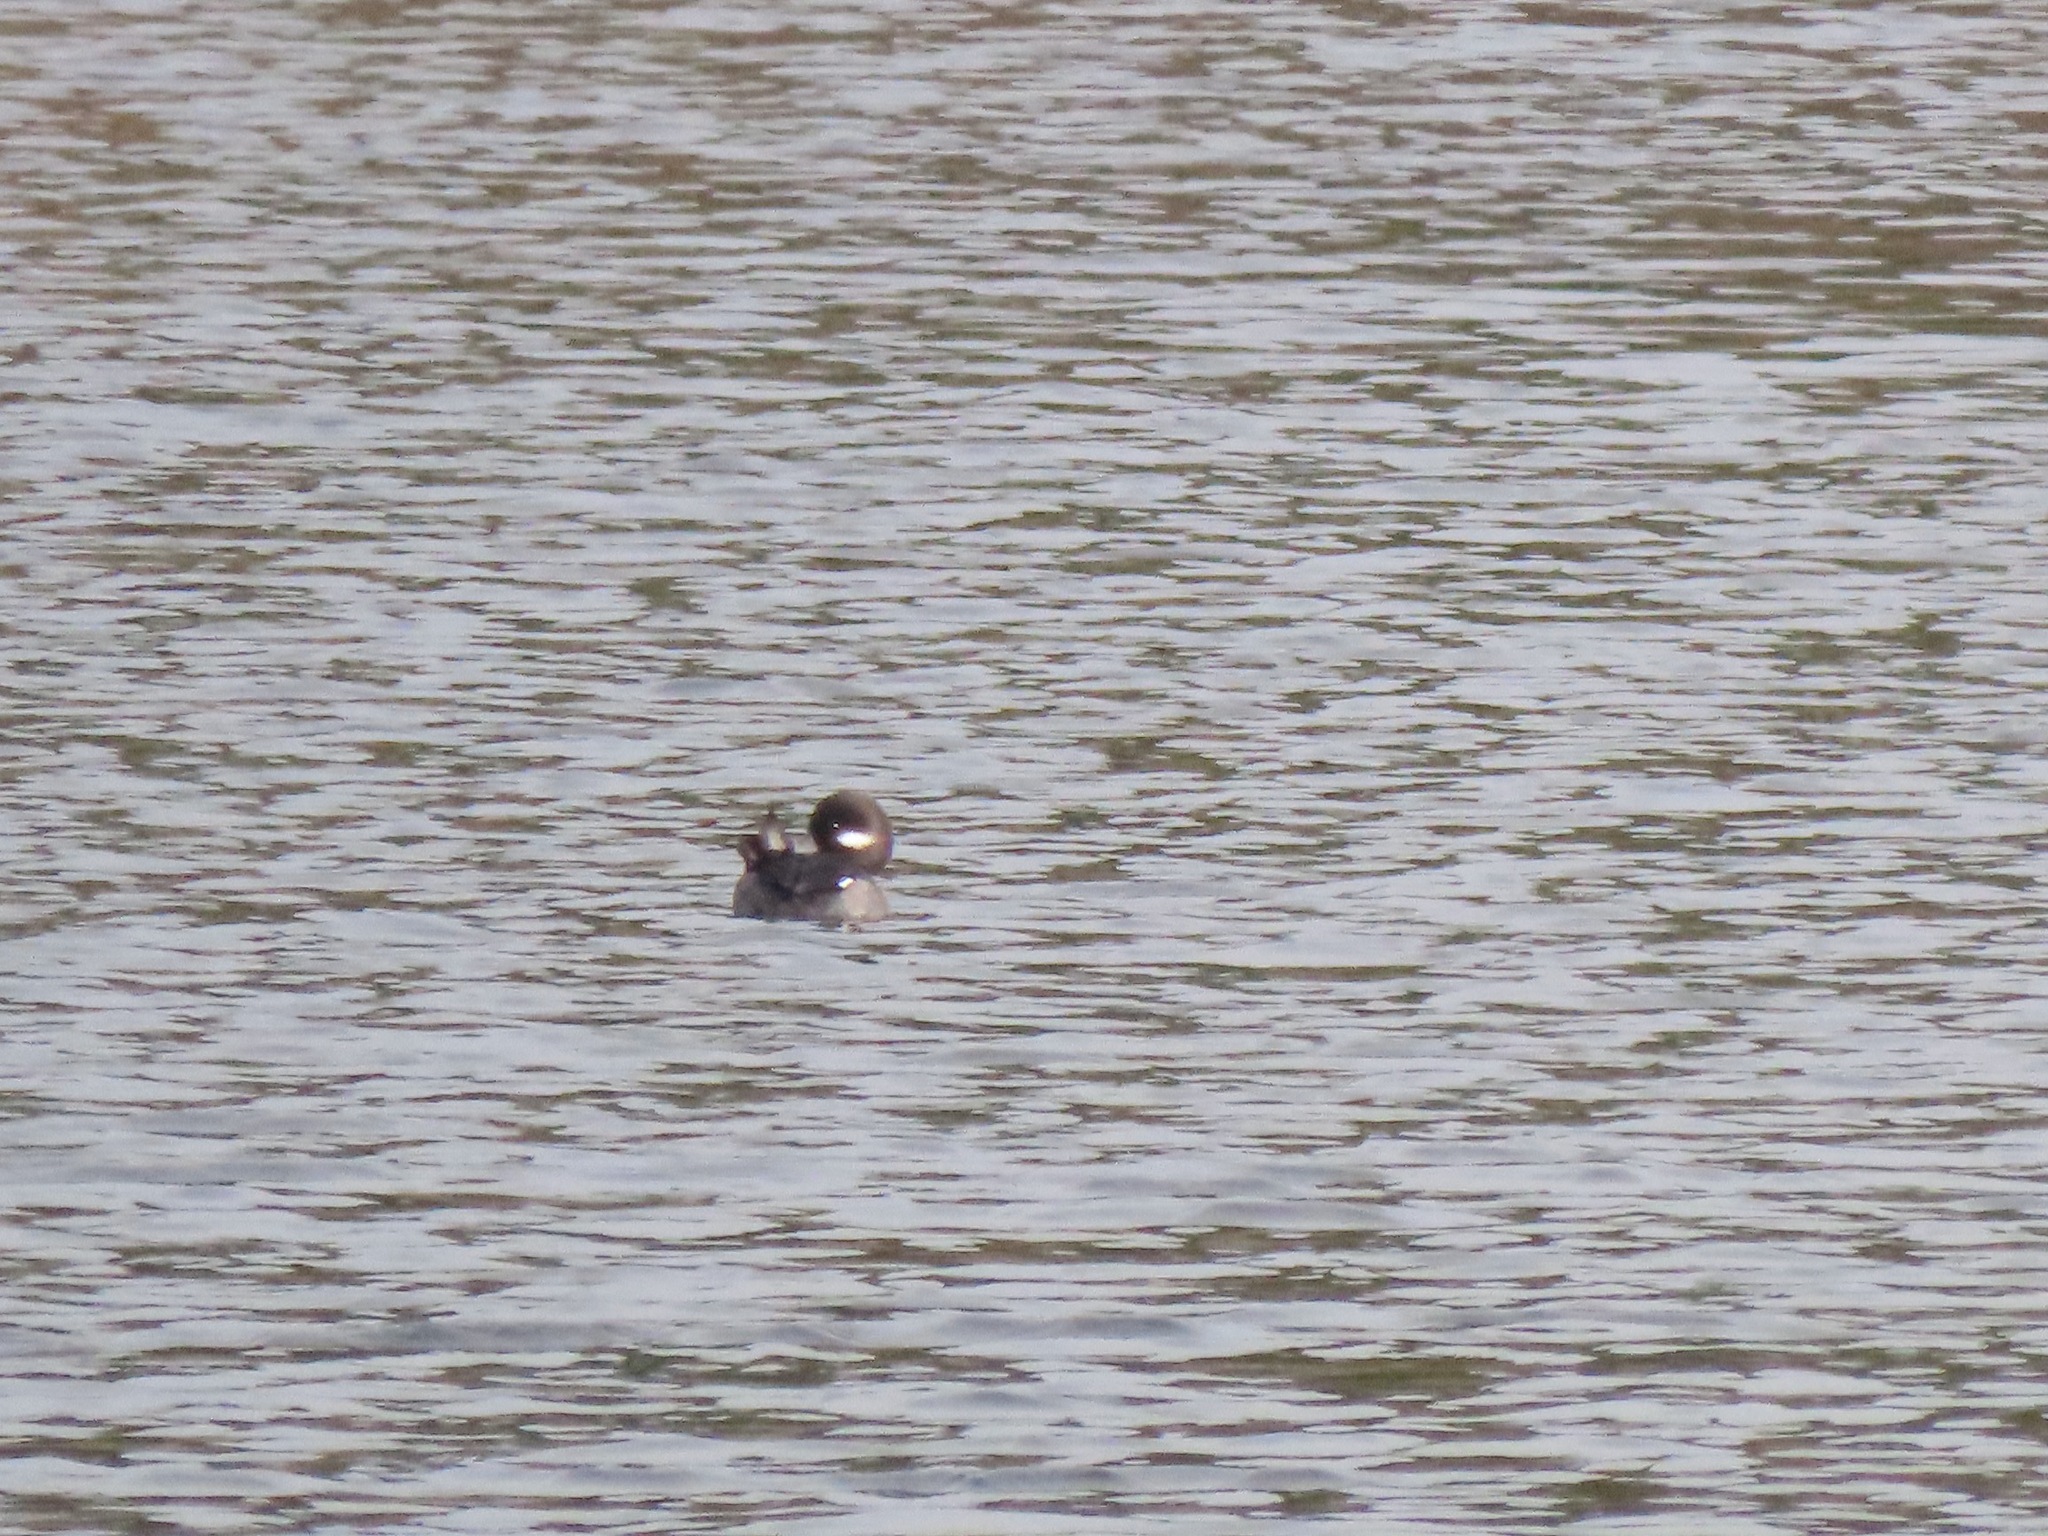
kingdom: Animalia
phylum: Chordata
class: Aves
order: Anseriformes
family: Anatidae
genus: Bucephala
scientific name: Bucephala albeola
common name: Bufflehead
